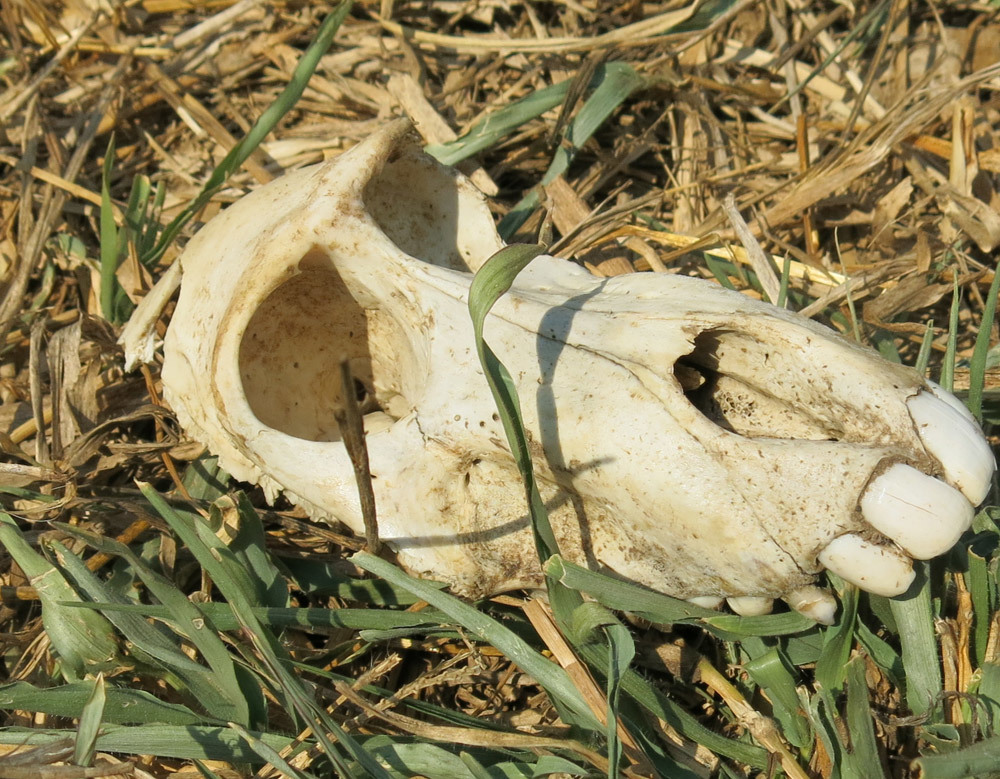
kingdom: Animalia
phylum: Chordata
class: Mammalia
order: Primates
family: Cercopithecidae
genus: Papio
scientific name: Papio ursinus
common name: Chacma baboon
